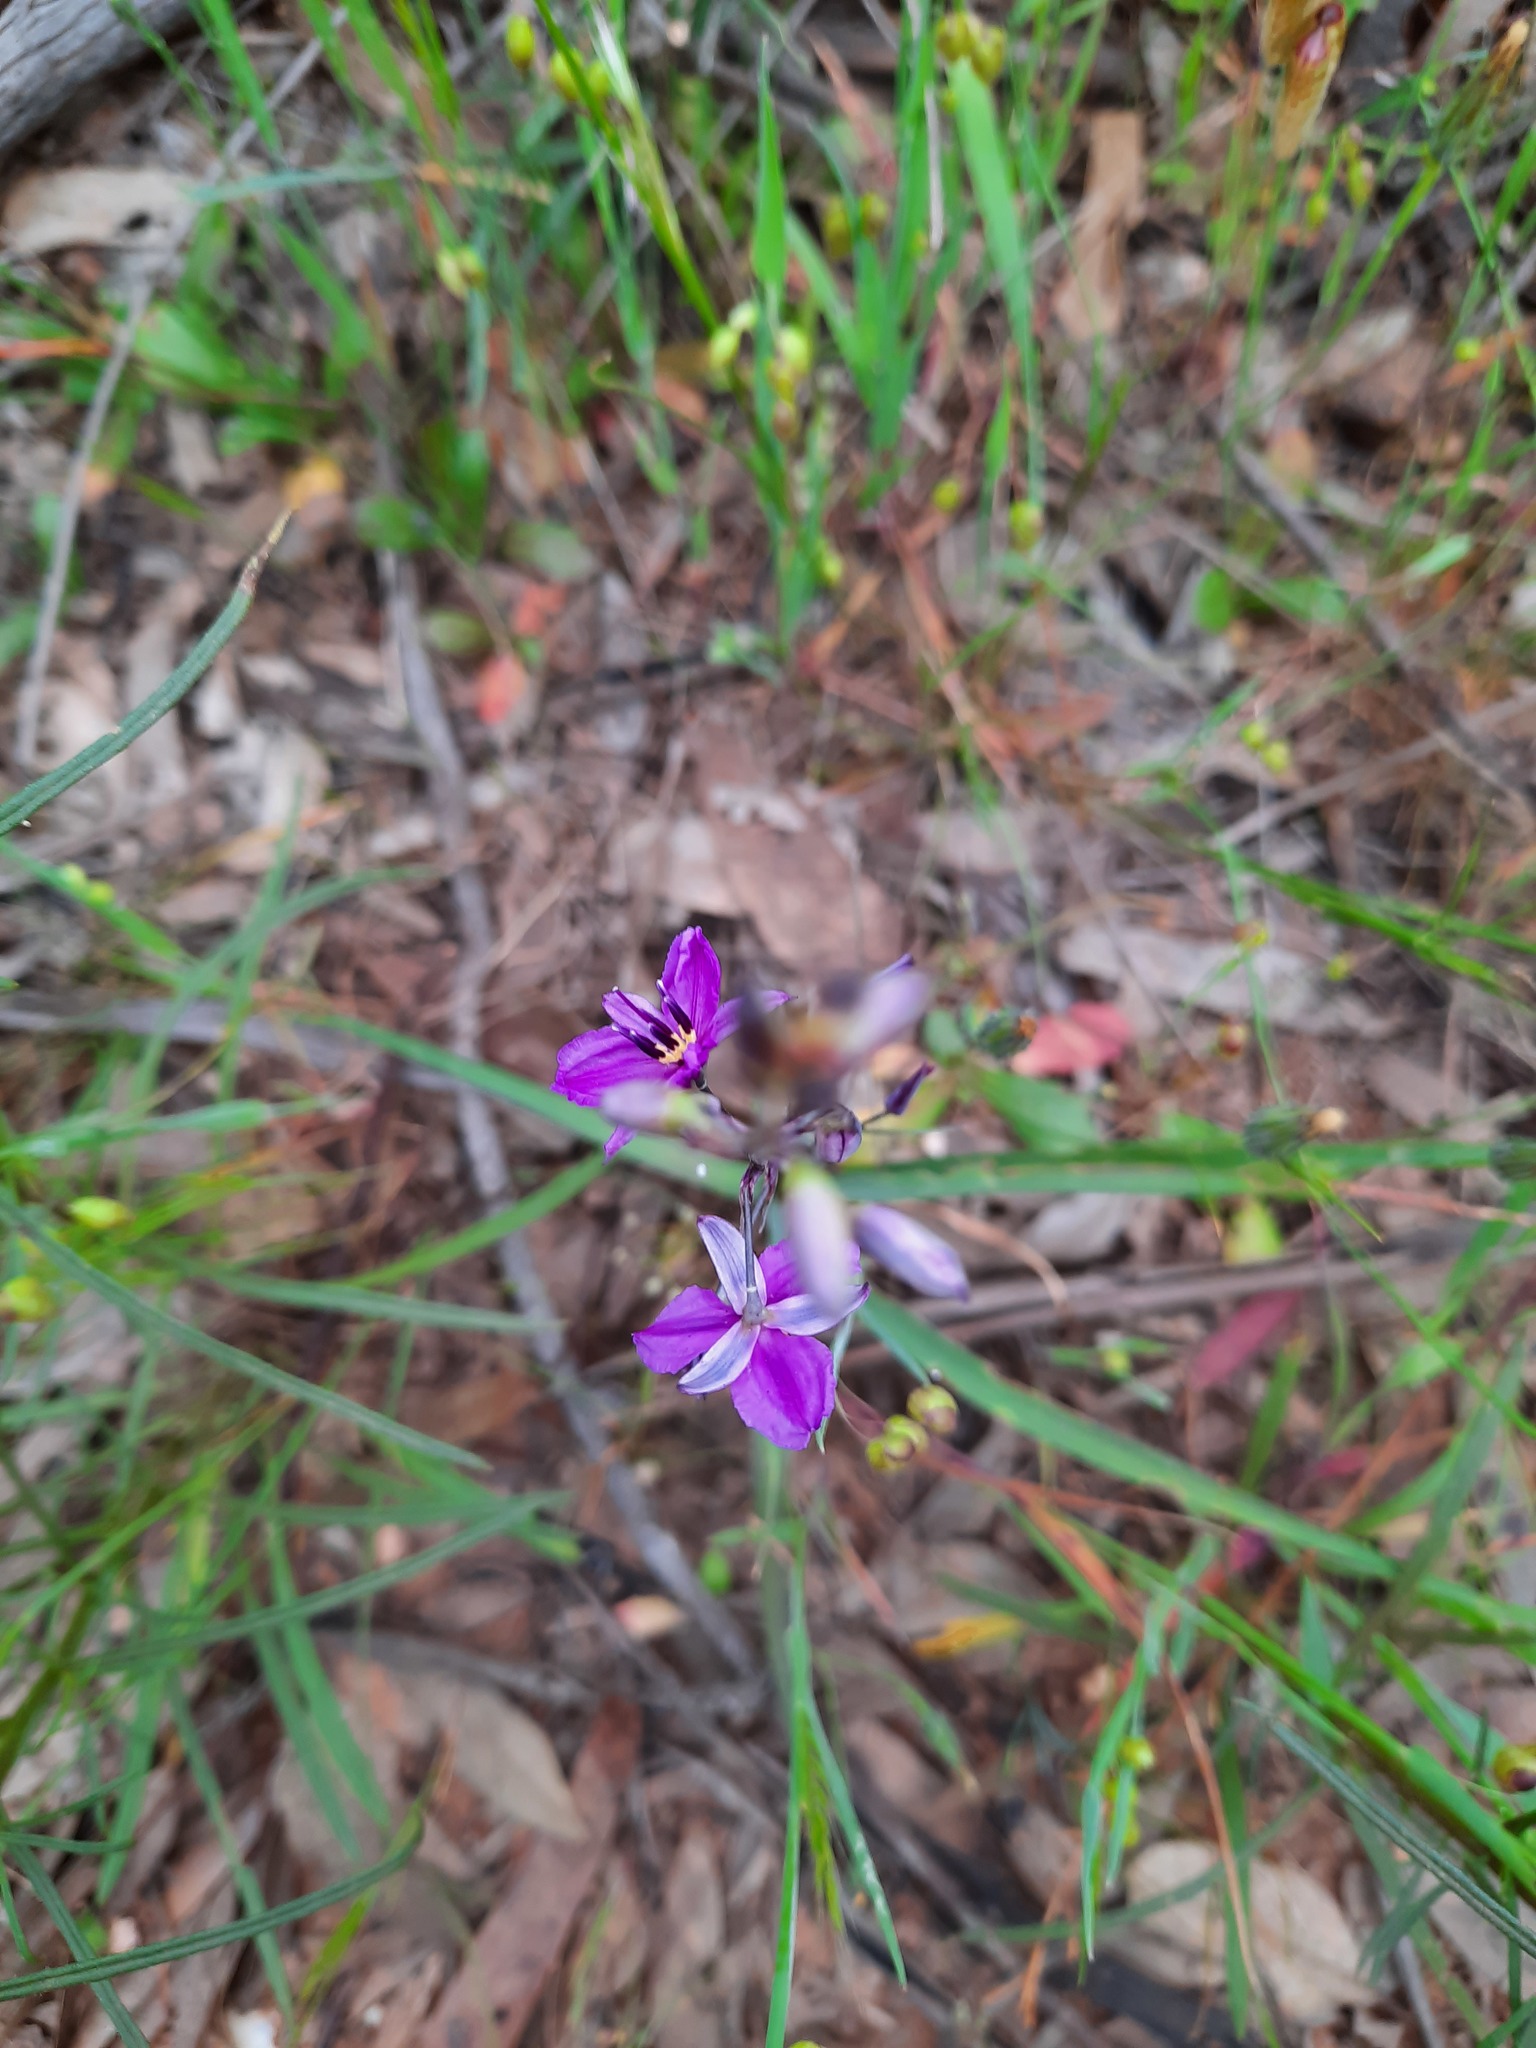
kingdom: Plantae
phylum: Tracheophyta
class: Liliopsida
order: Asparagales
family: Asparagaceae
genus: Arthropodium
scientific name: Arthropodium strictum
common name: Chocolate-lily
